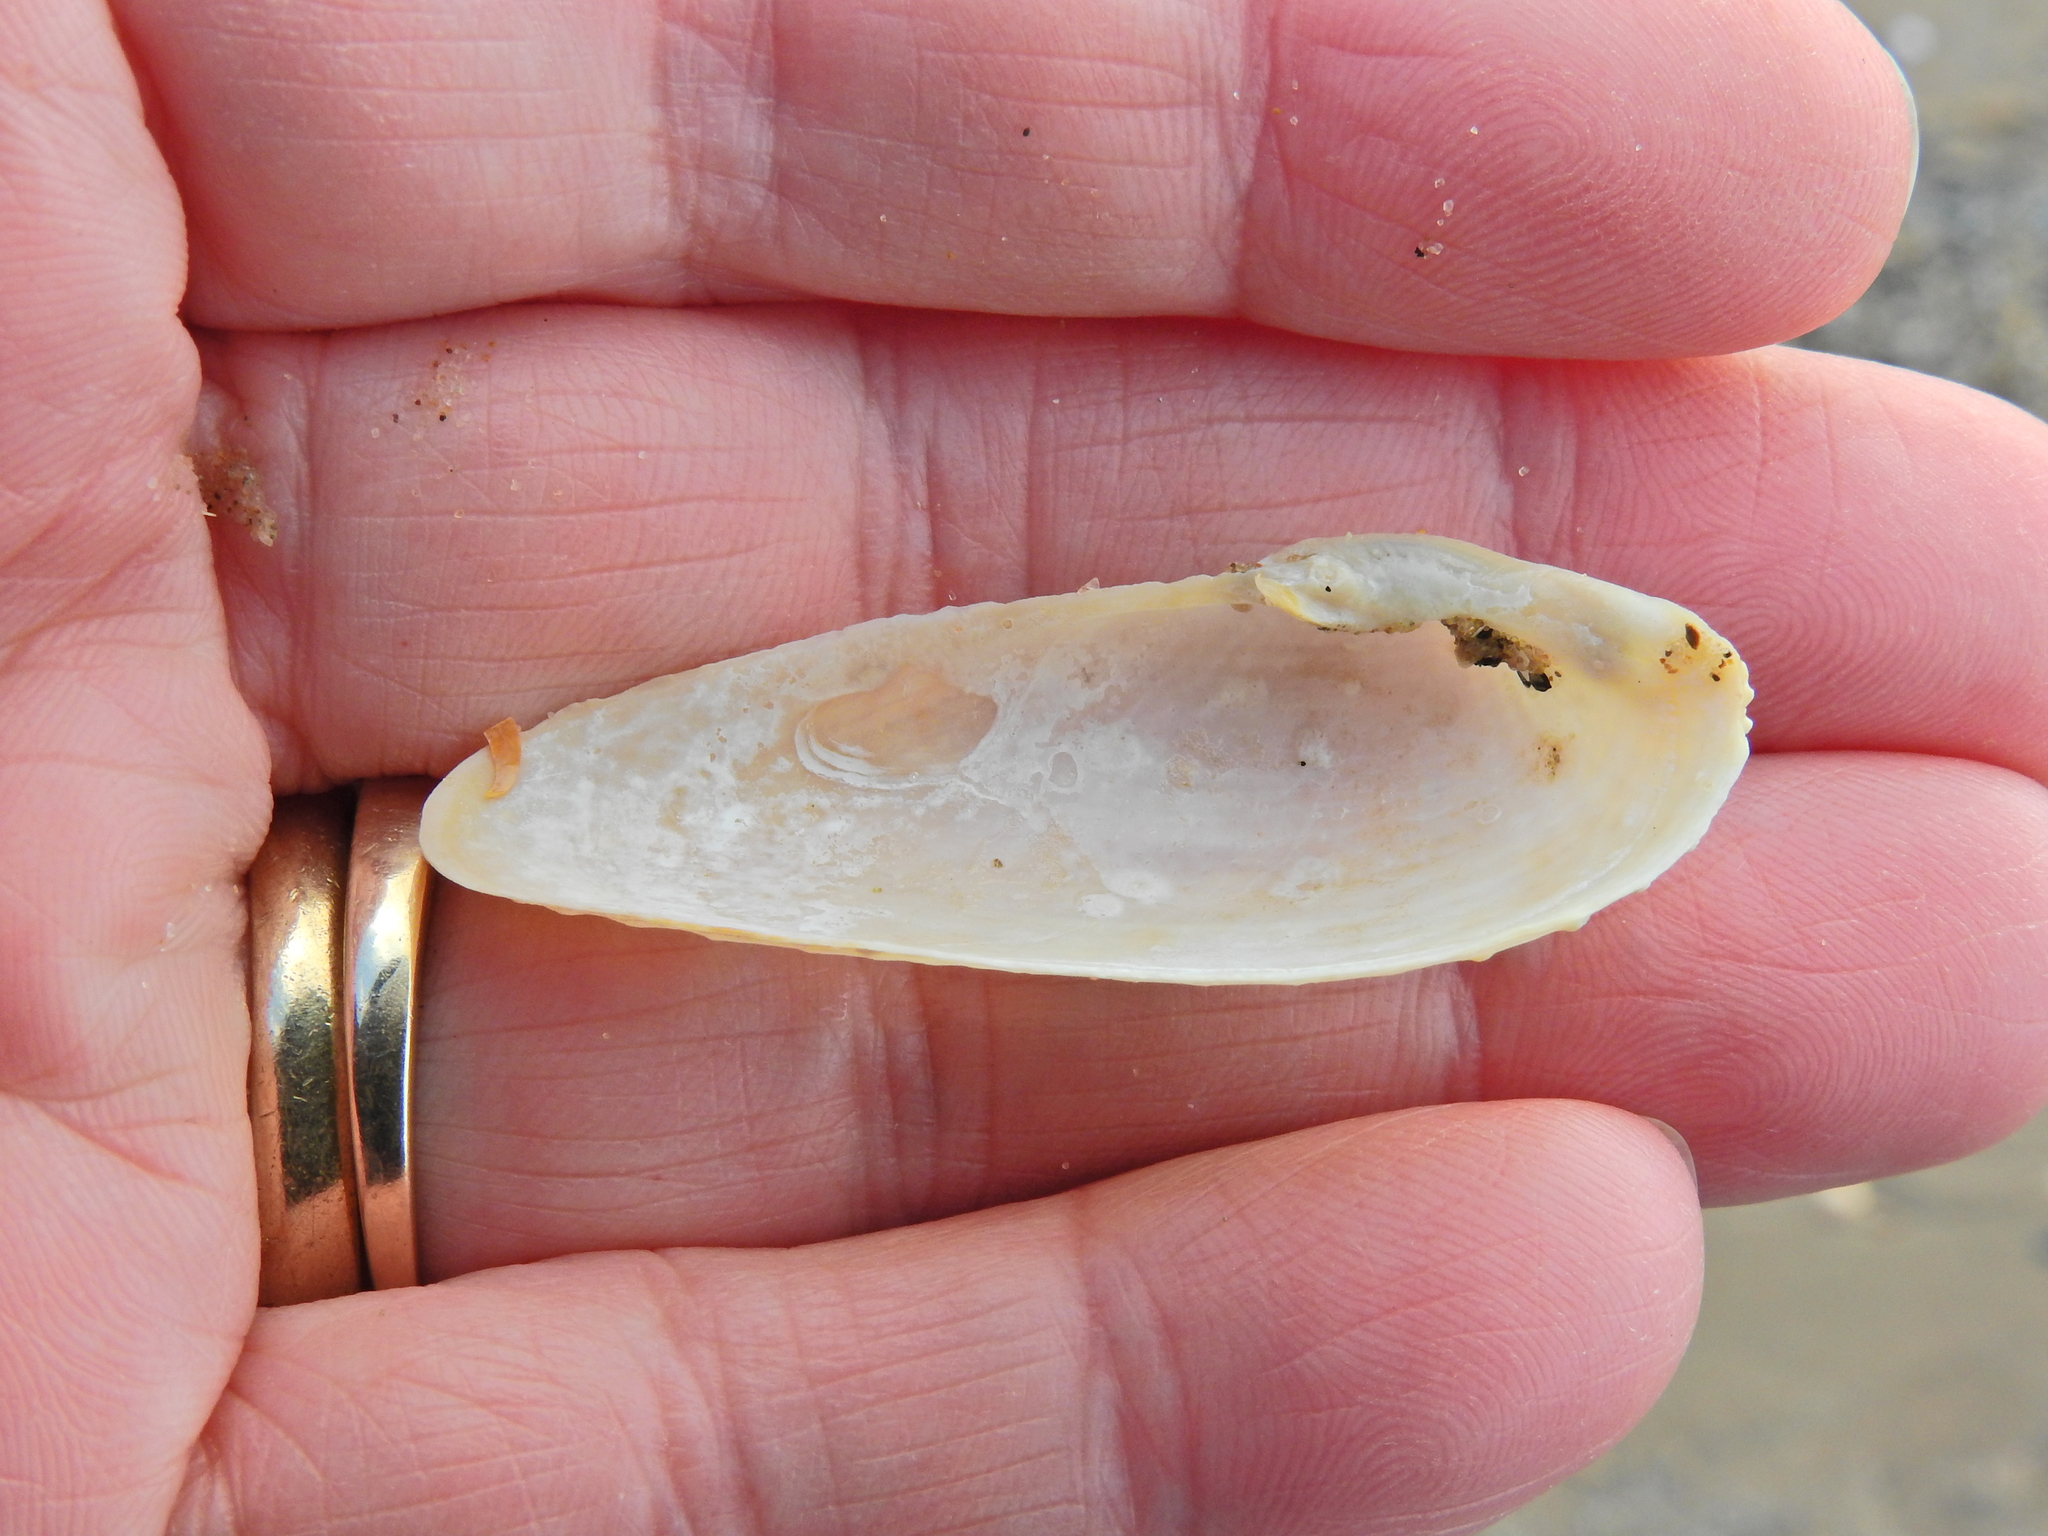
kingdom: Animalia
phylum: Mollusca
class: Bivalvia
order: Myida
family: Pholadidae
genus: Barnea
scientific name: Barnea candida
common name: White piddock
